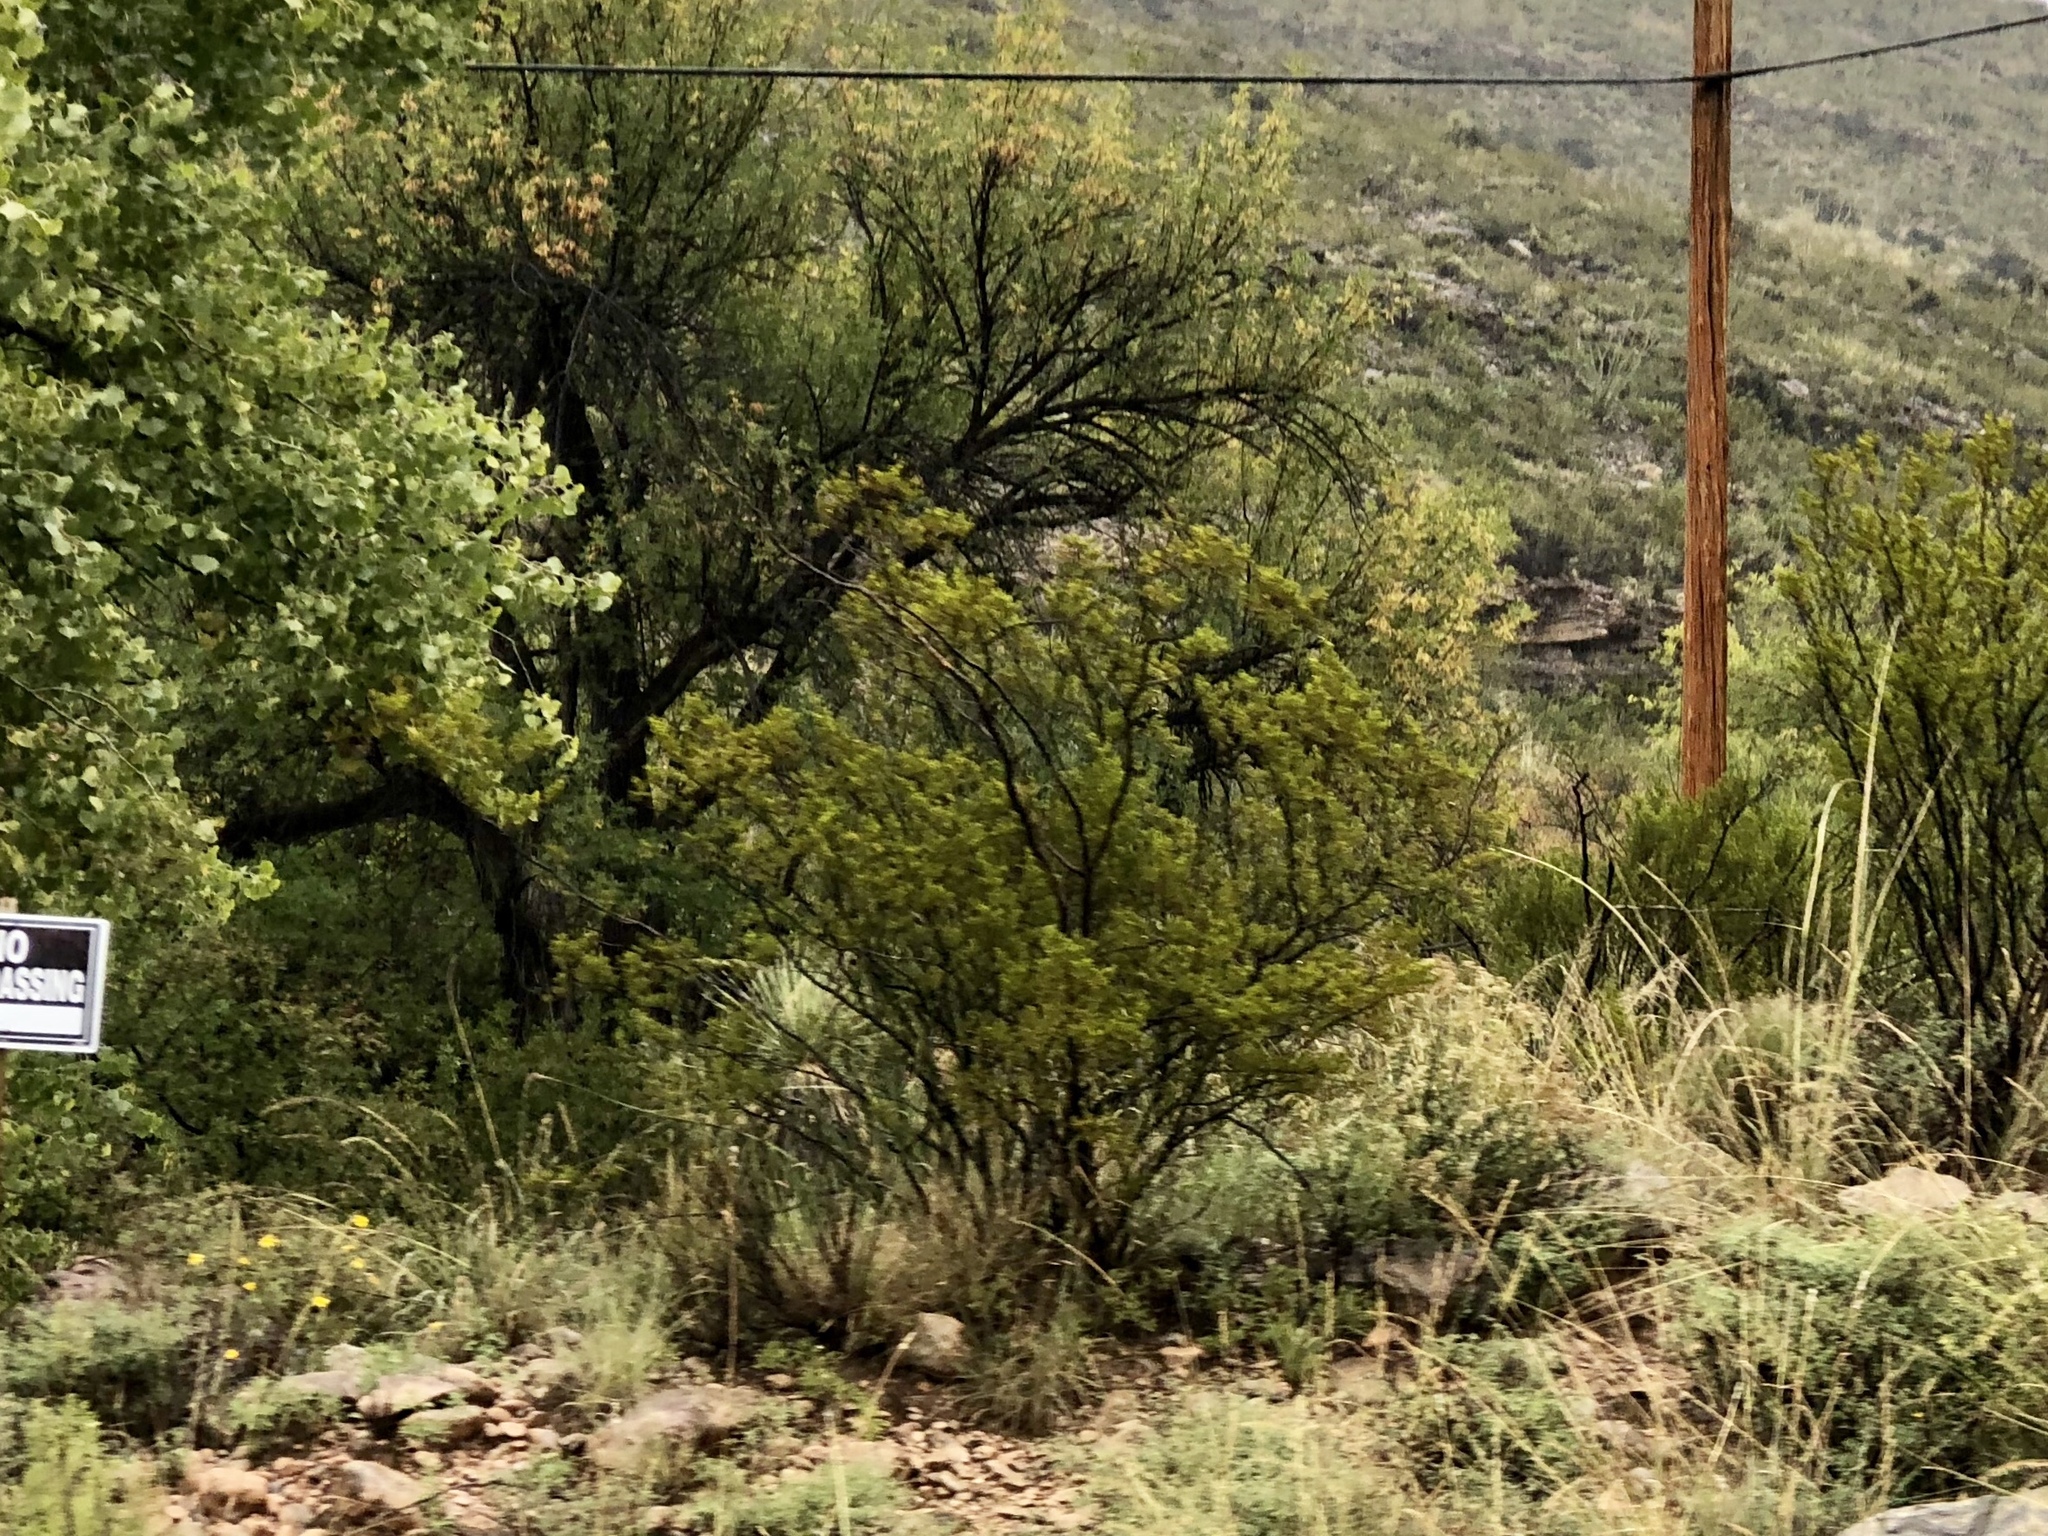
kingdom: Plantae
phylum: Tracheophyta
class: Magnoliopsida
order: Zygophyllales
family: Zygophyllaceae
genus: Larrea
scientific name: Larrea tridentata
